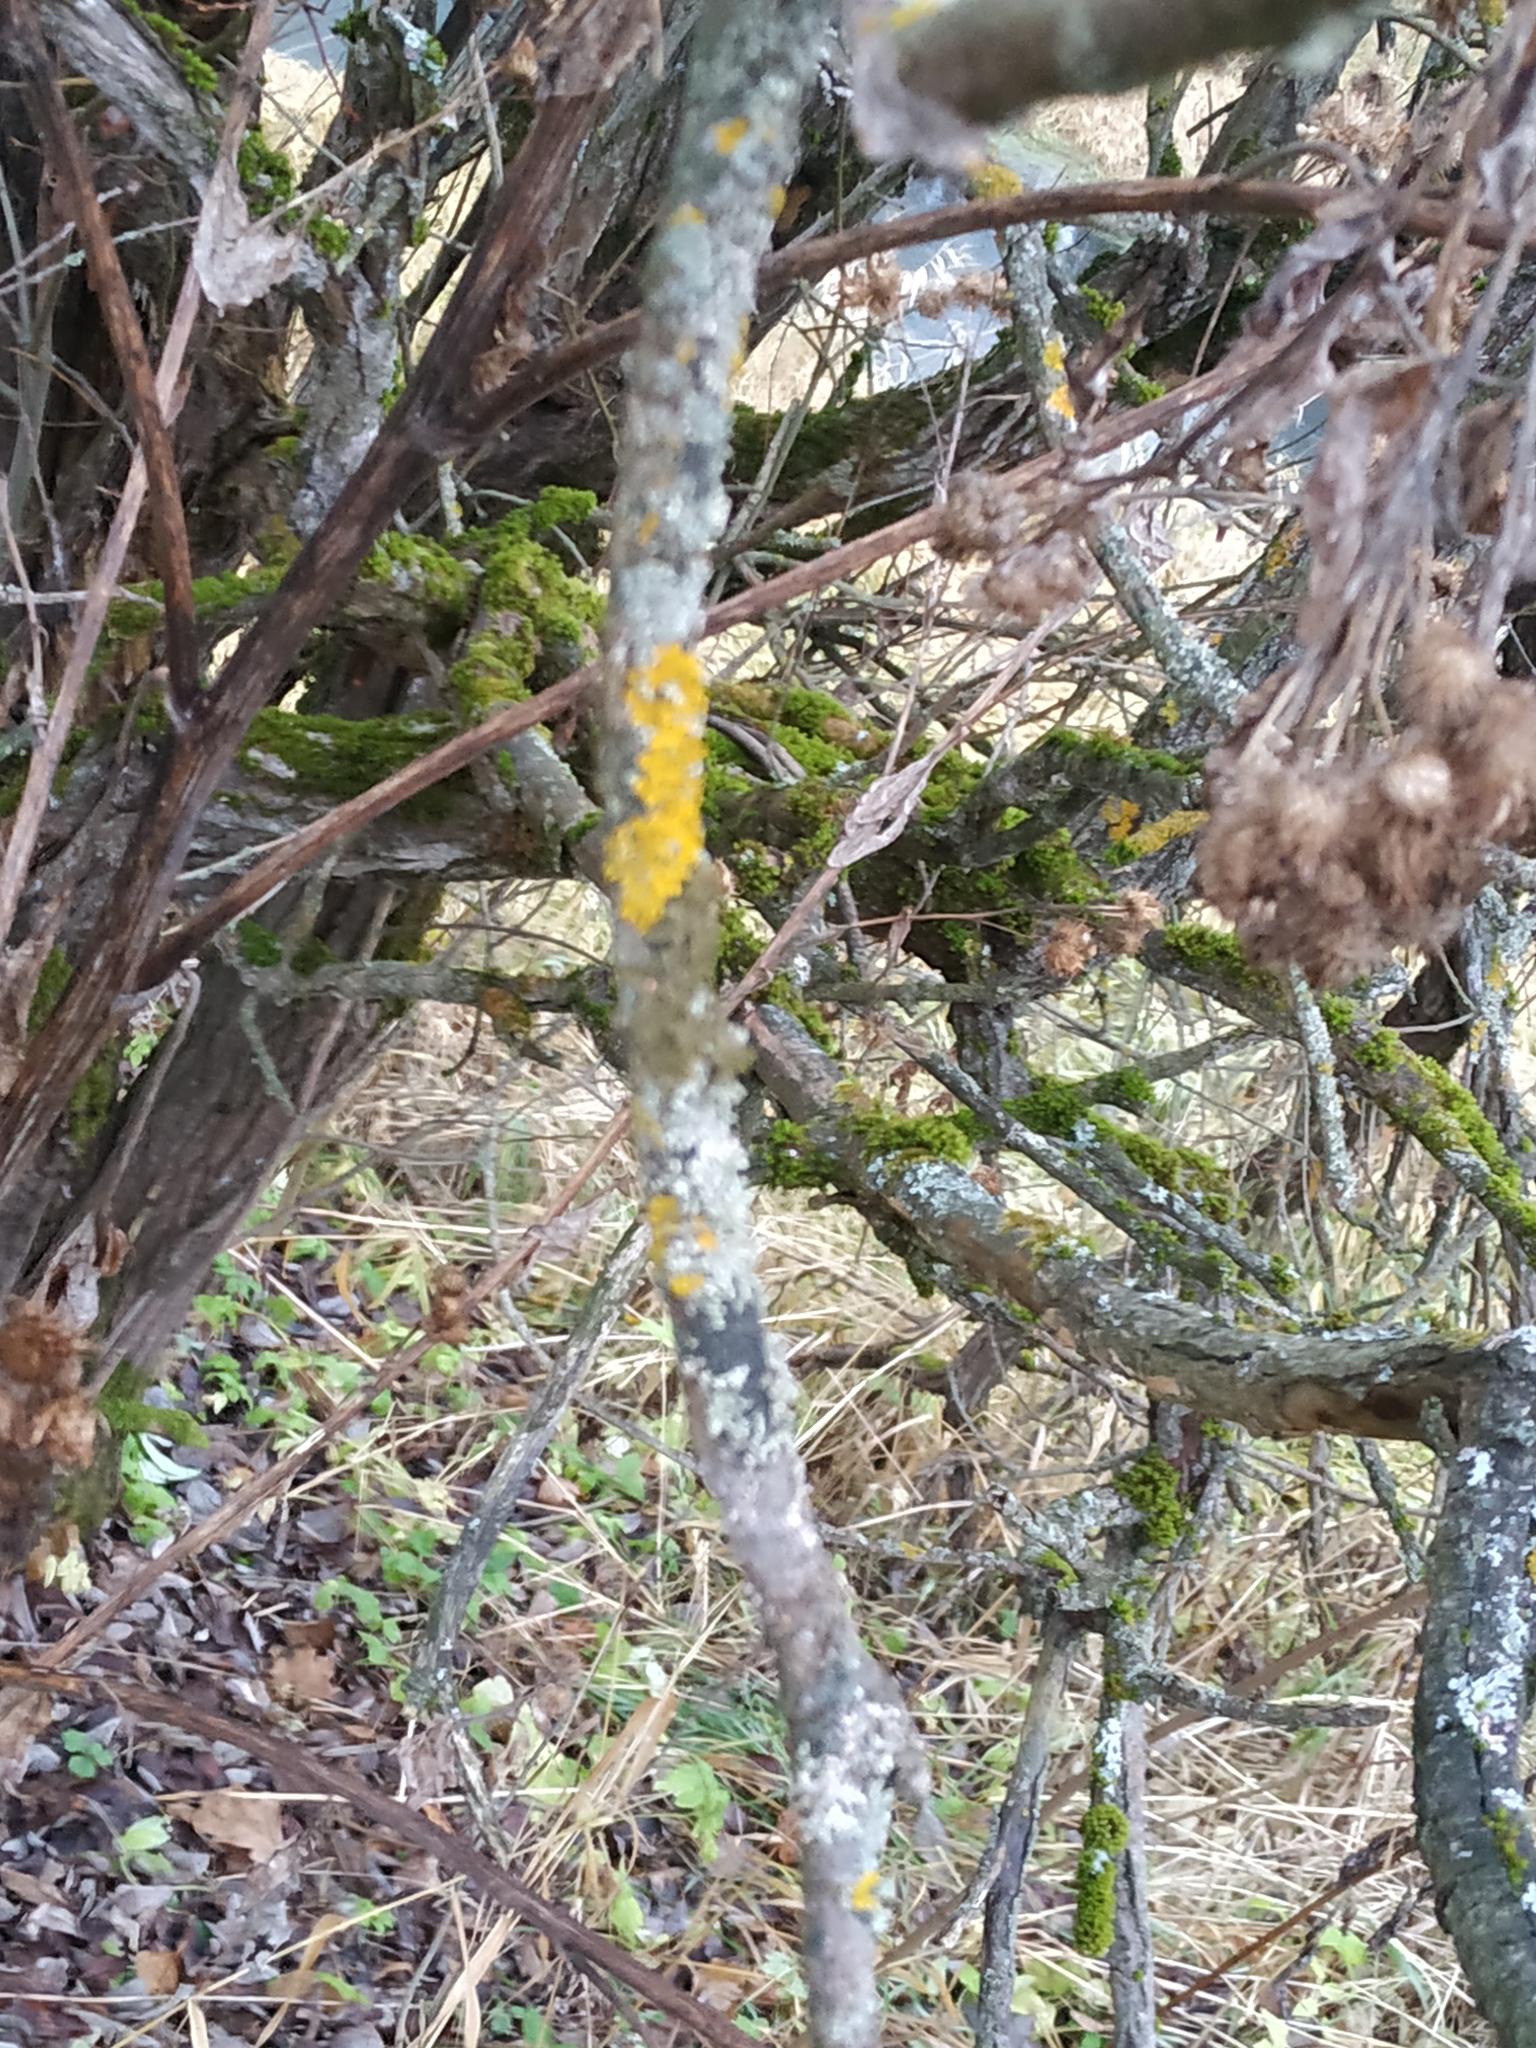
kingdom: Fungi
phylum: Ascomycota
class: Lecanoromycetes
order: Teloschistales
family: Teloschistaceae
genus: Xanthoria
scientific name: Xanthoria parietina
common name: Common orange lichen
